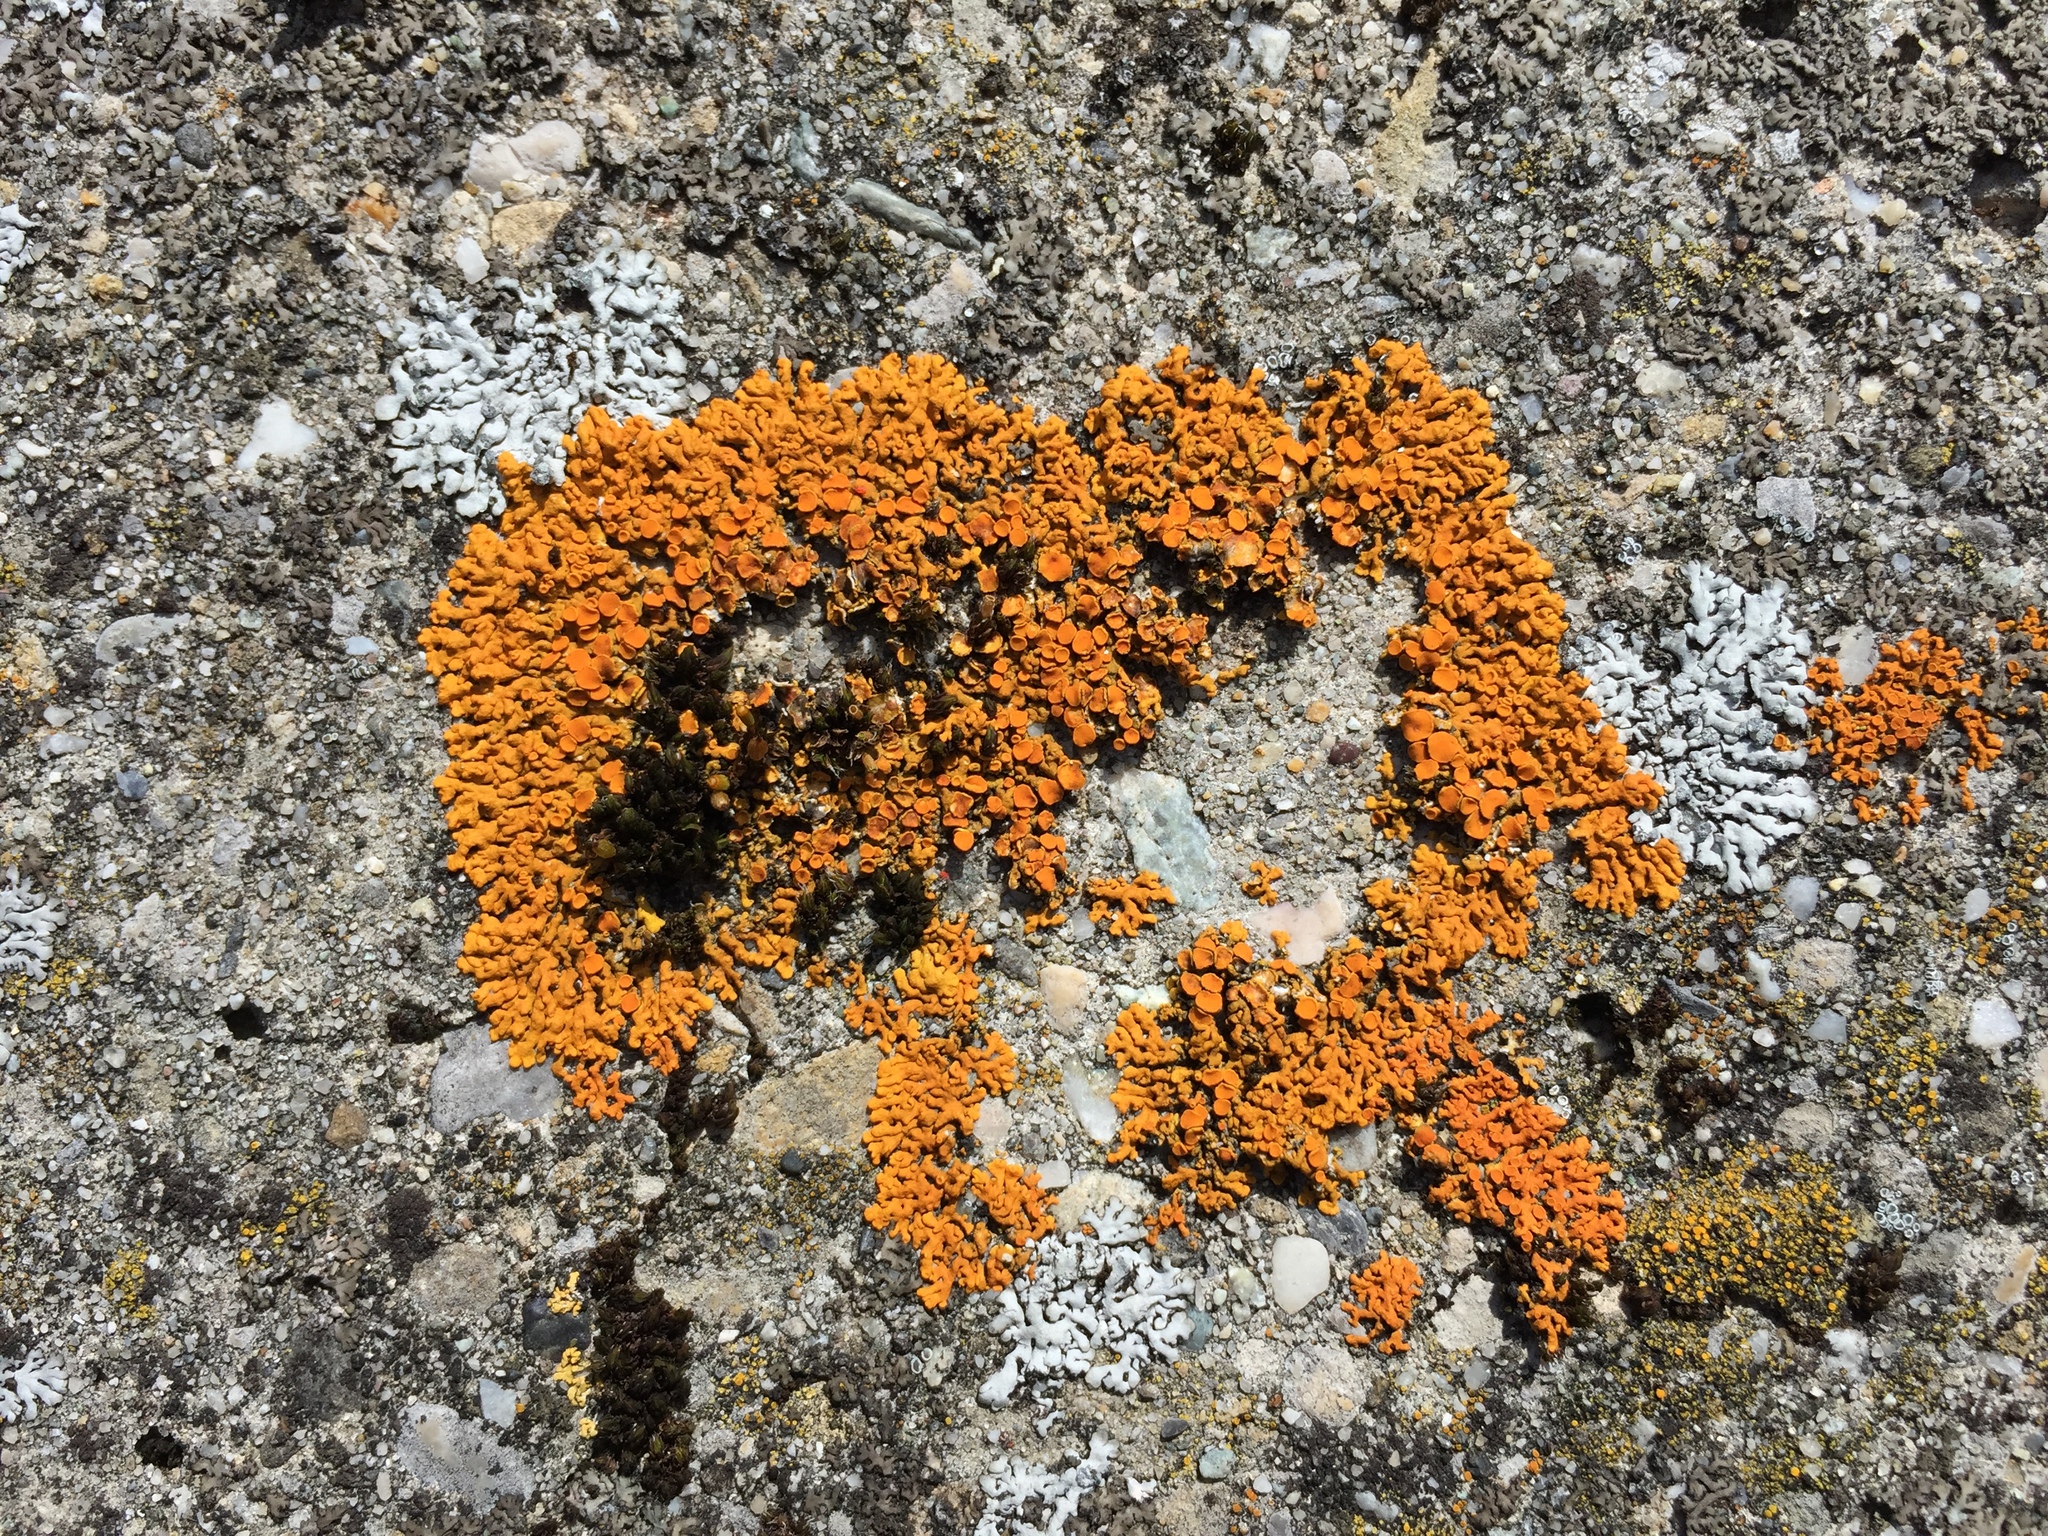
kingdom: Fungi
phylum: Ascomycota
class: Lecanoromycetes
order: Teloschistales
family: Teloschistaceae
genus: Xanthoria
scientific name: Xanthoria elegans
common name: Elegant sunburst lichen
